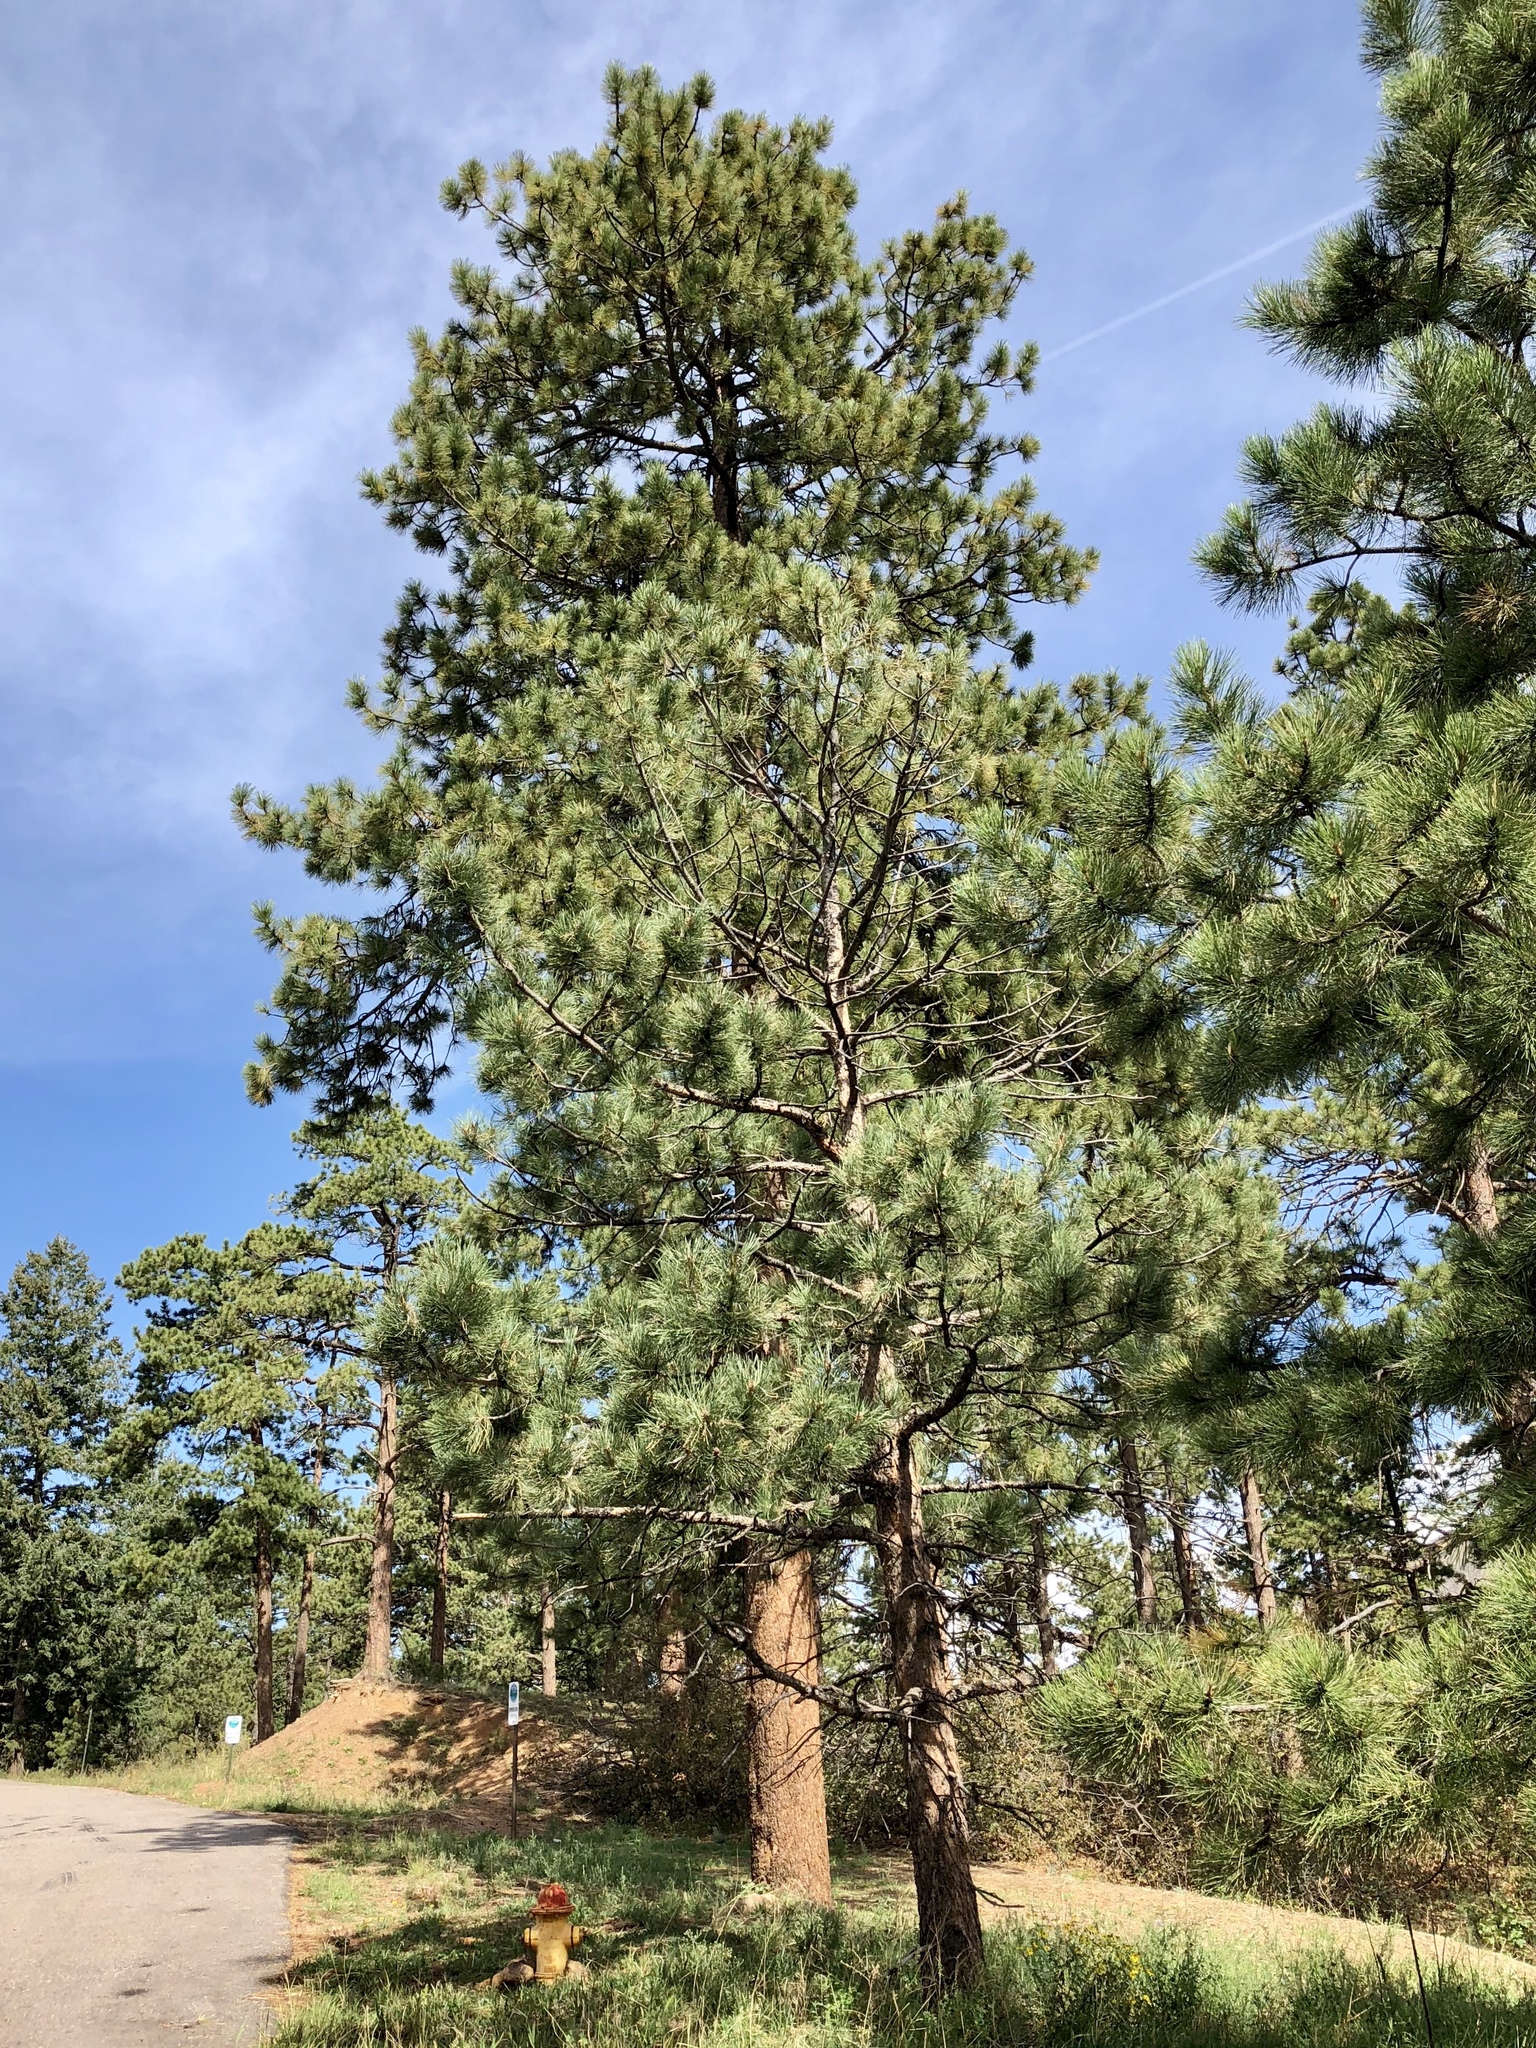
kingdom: Plantae
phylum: Tracheophyta
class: Pinopsida
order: Pinales
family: Pinaceae
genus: Pinus
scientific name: Pinus ponderosa
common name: Western yellow-pine
